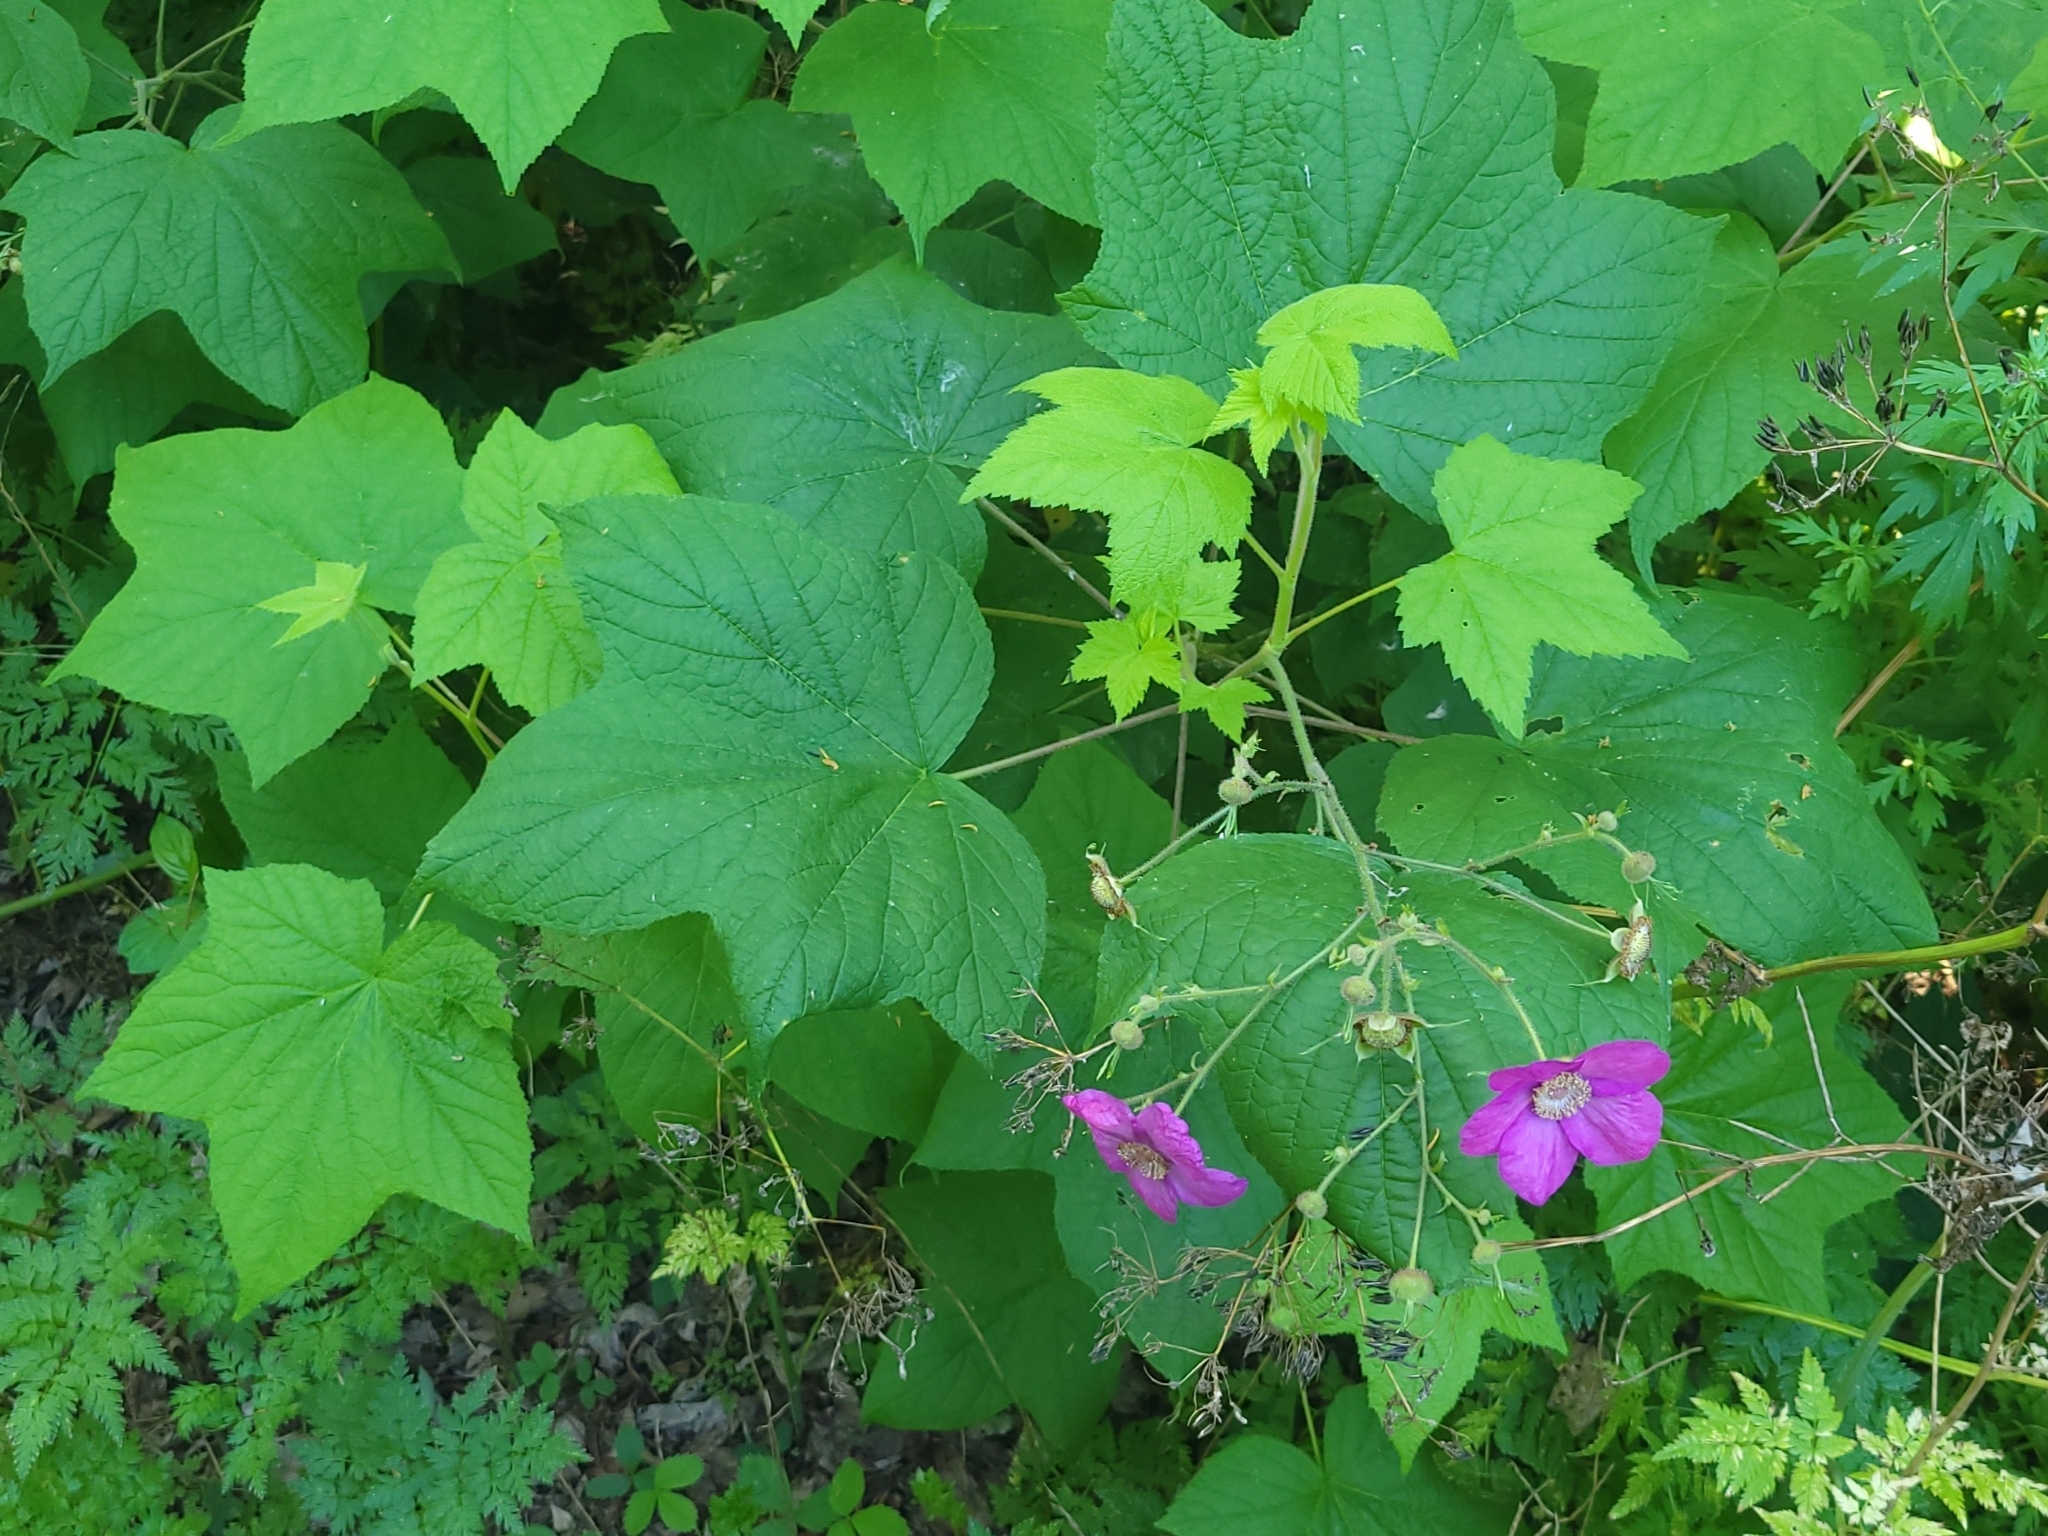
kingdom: Plantae
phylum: Tracheophyta
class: Magnoliopsida
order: Rosales
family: Rosaceae
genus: Rubus
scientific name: Rubus odoratus
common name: Purple-flowered raspberry
